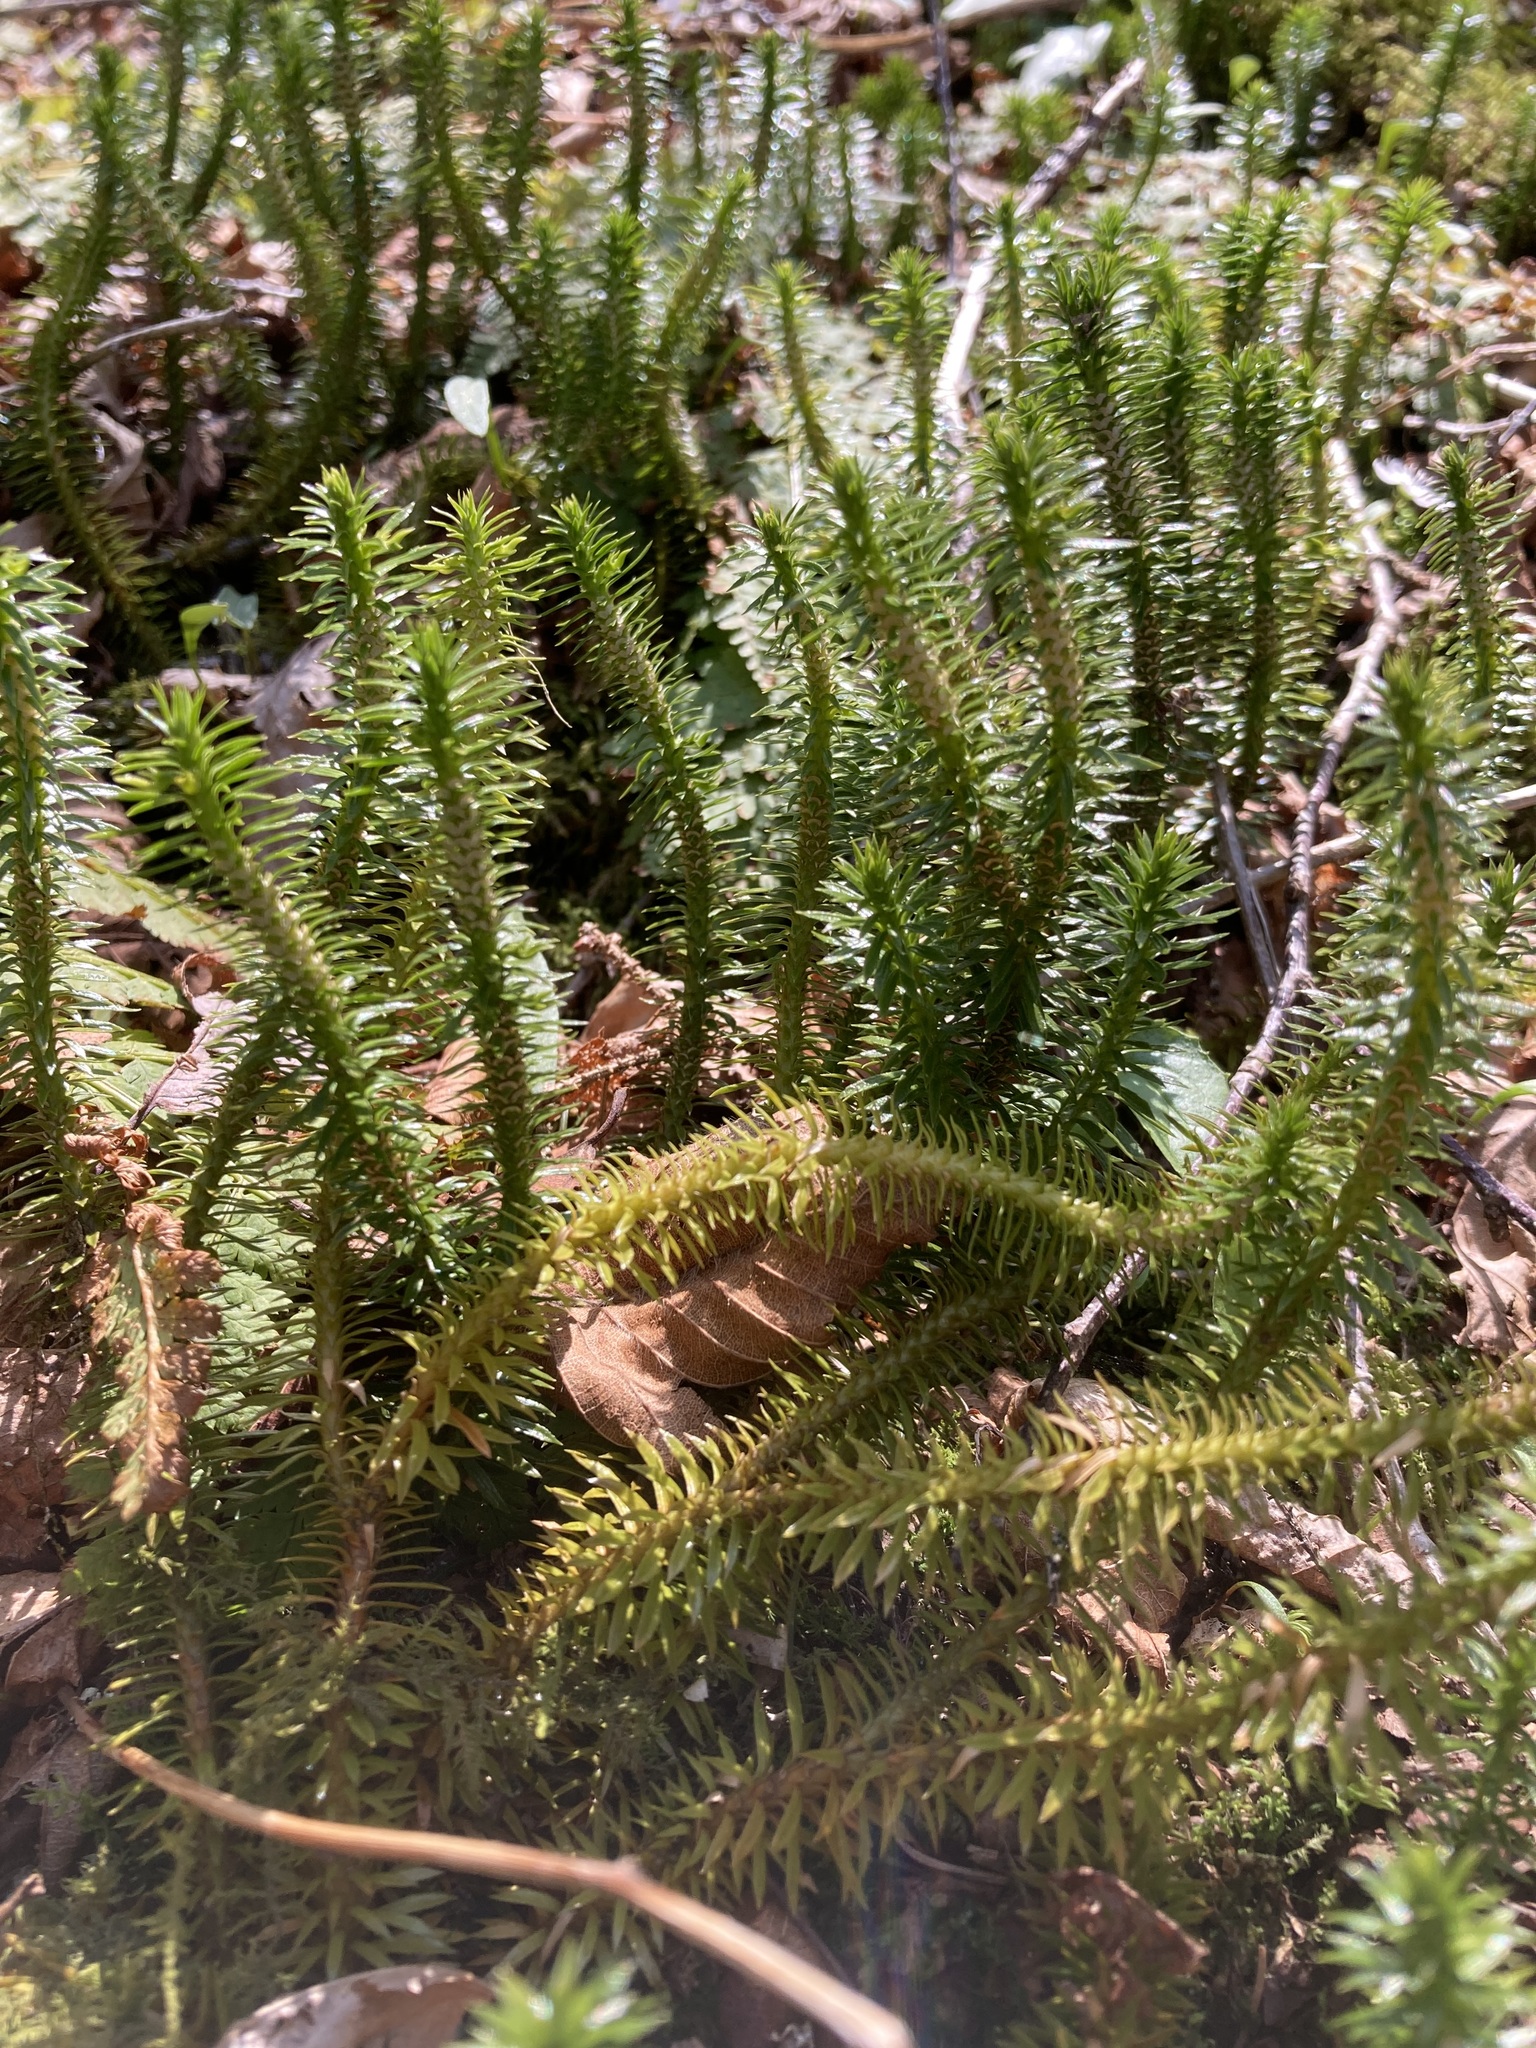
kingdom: Plantae
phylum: Tracheophyta
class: Lycopodiopsida
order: Lycopodiales
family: Lycopodiaceae
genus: Huperzia
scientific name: Huperzia lucidula
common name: Shining clubmoss
